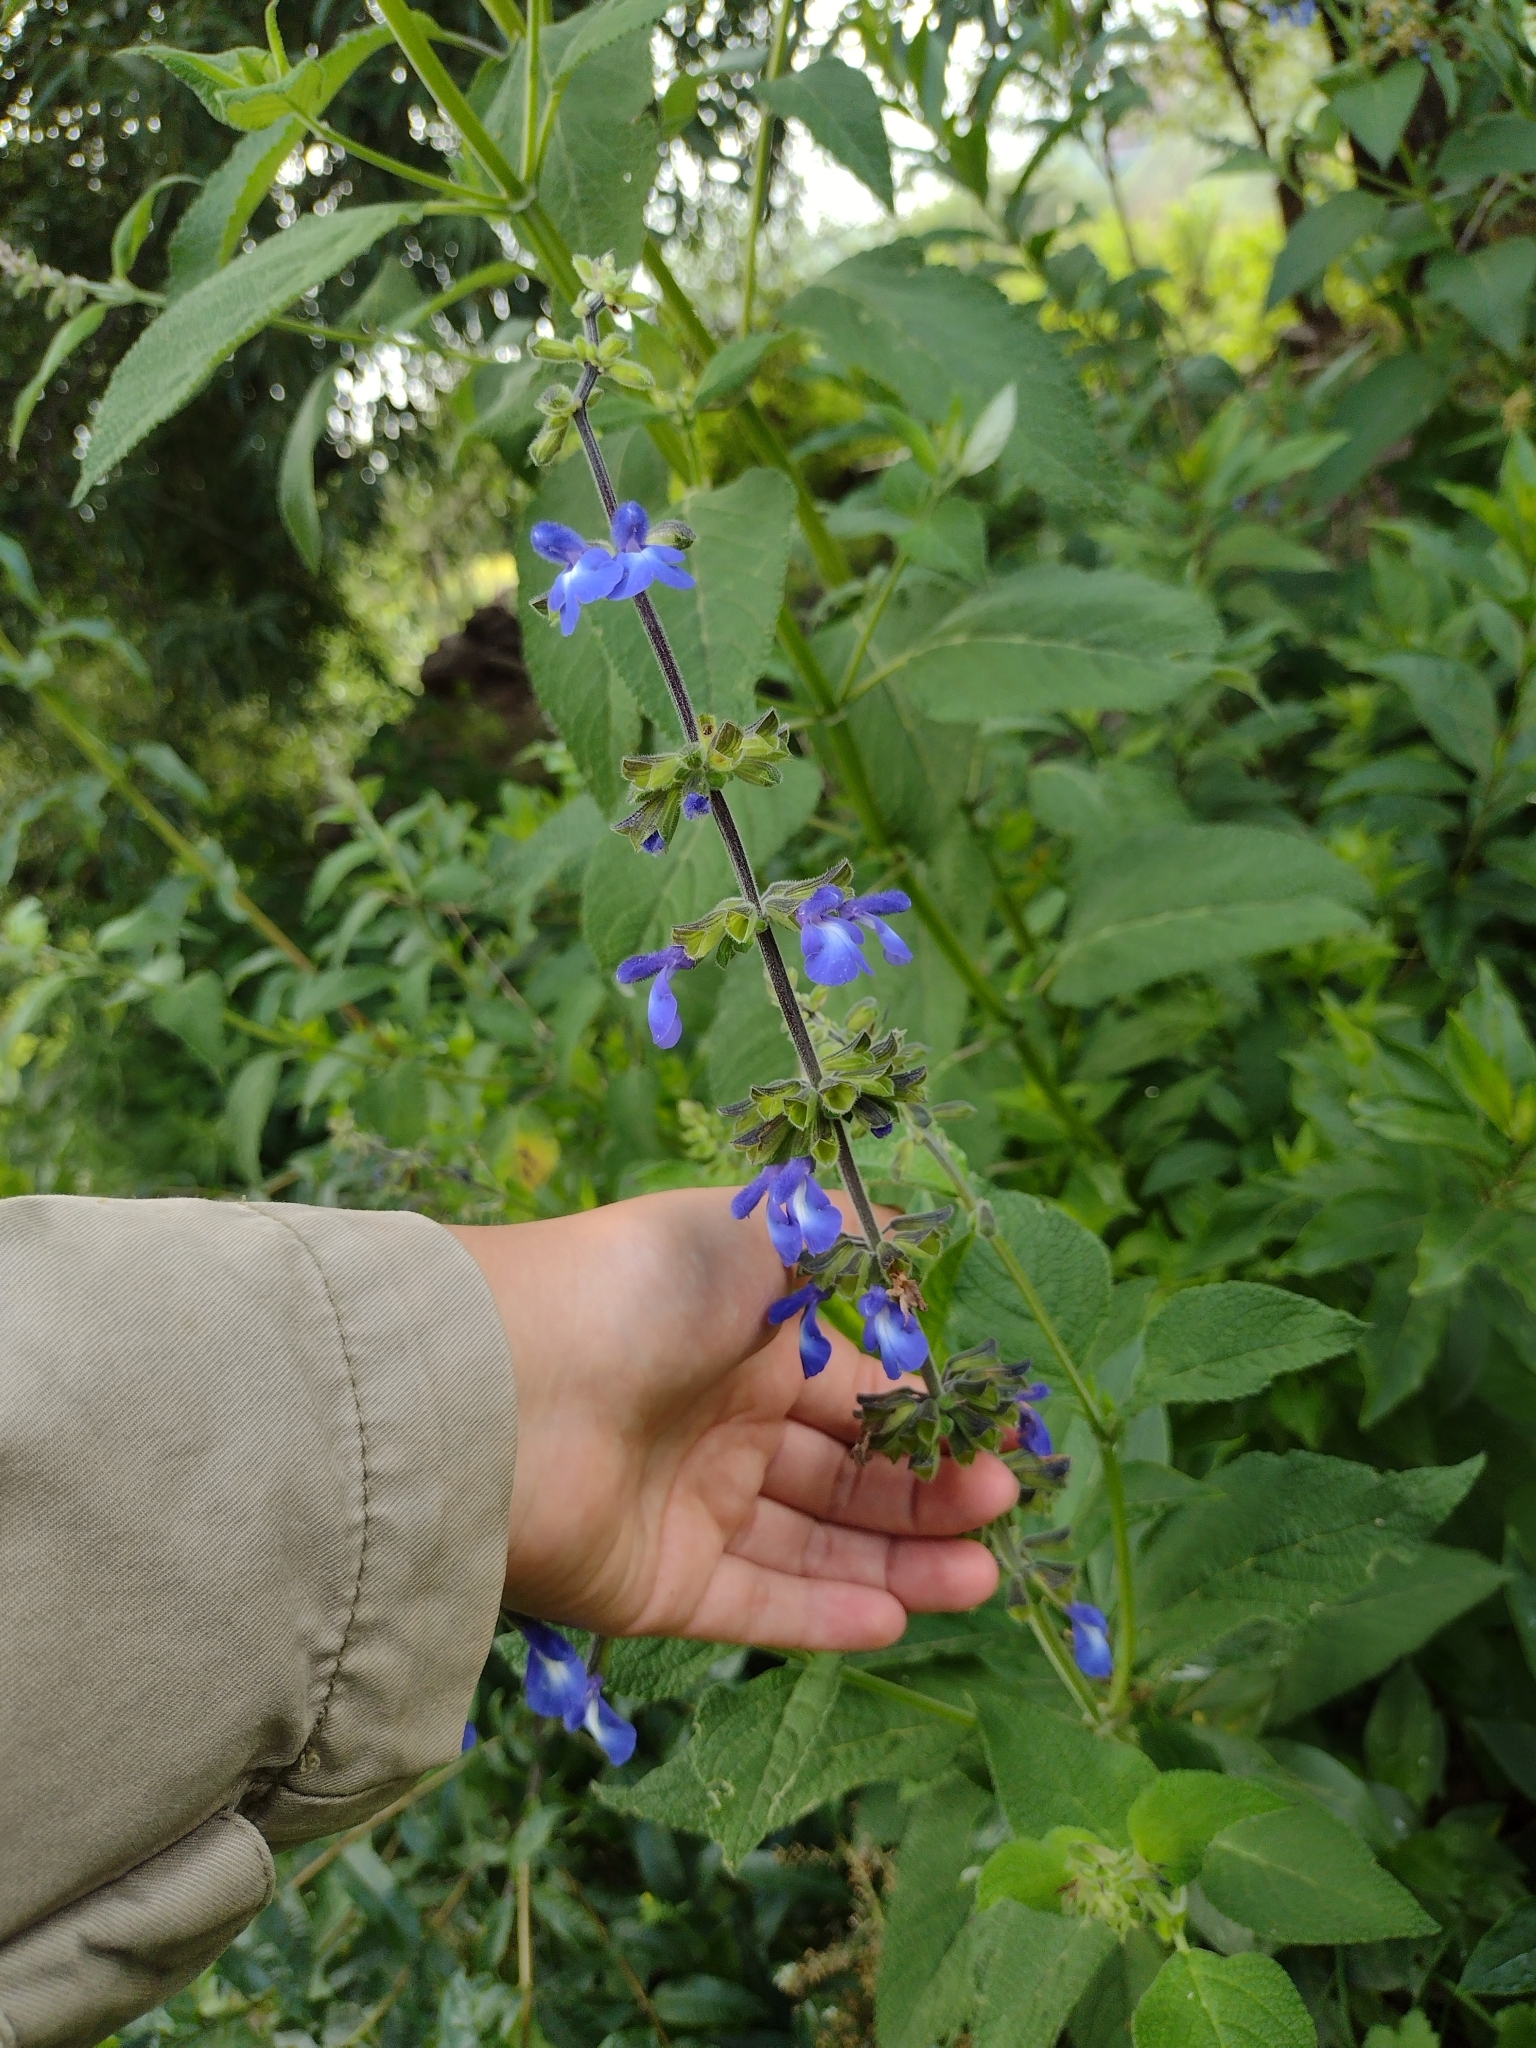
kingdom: Plantae
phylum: Tracheophyta
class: Magnoliopsida
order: Lamiales
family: Lamiaceae
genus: Salvia
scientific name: Salvia stachydifolia
